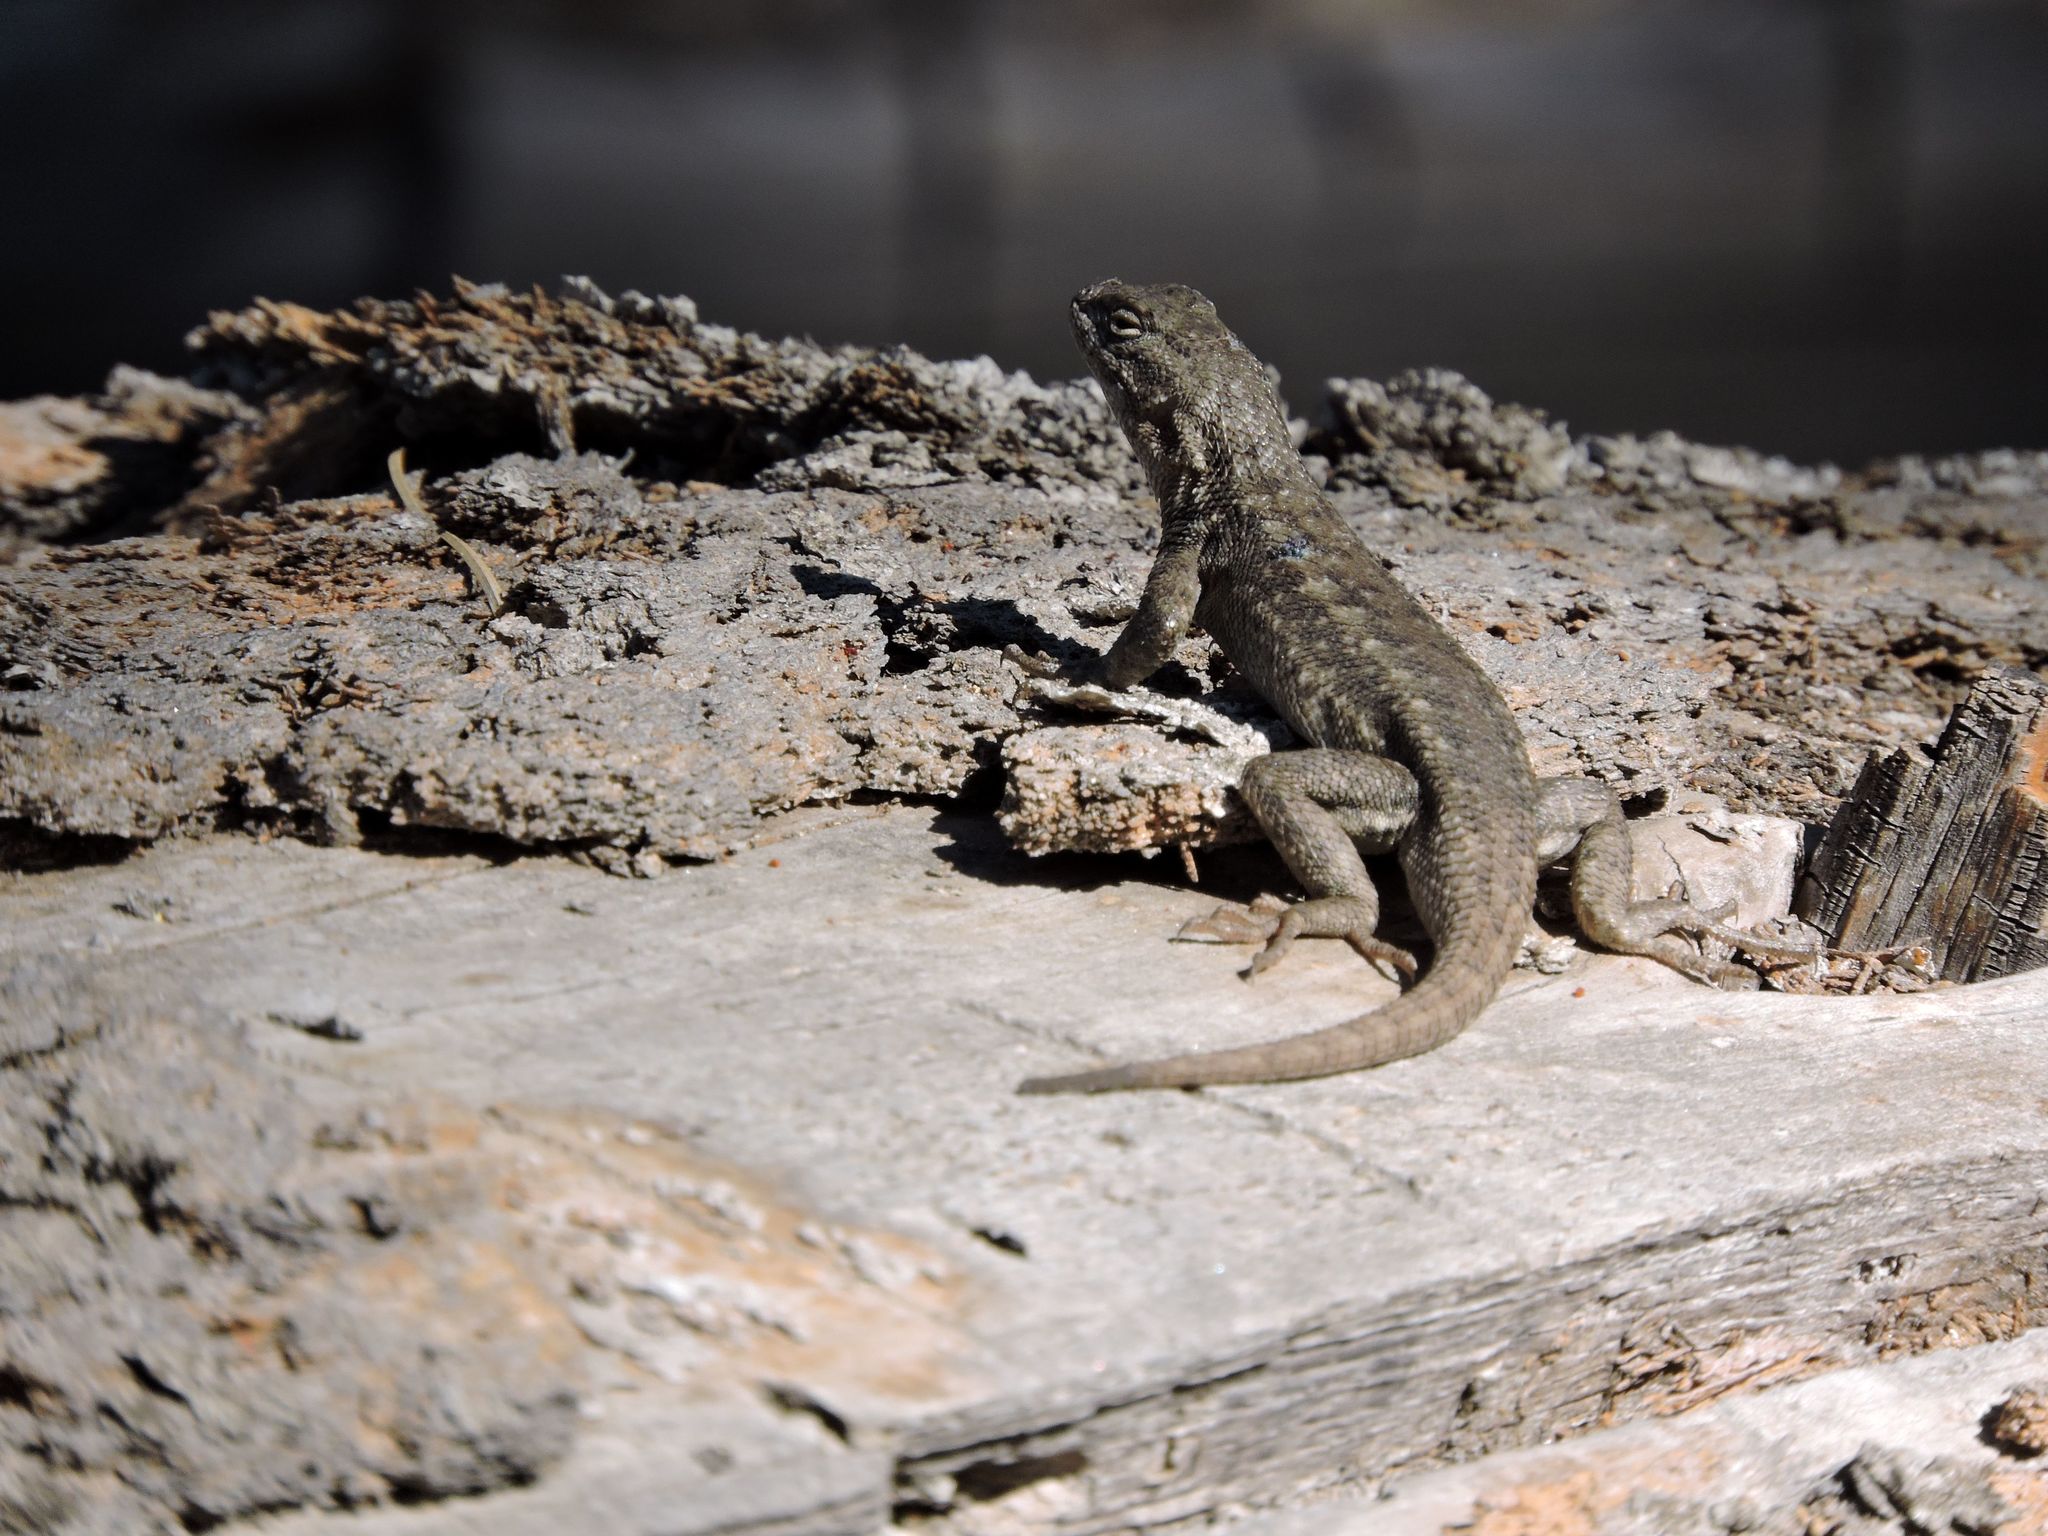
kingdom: Animalia
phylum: Chordata
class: Squamata
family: Phrynosomatidae
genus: Sceloporus
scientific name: Sceloporus occidentalis
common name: Western fence lizard
